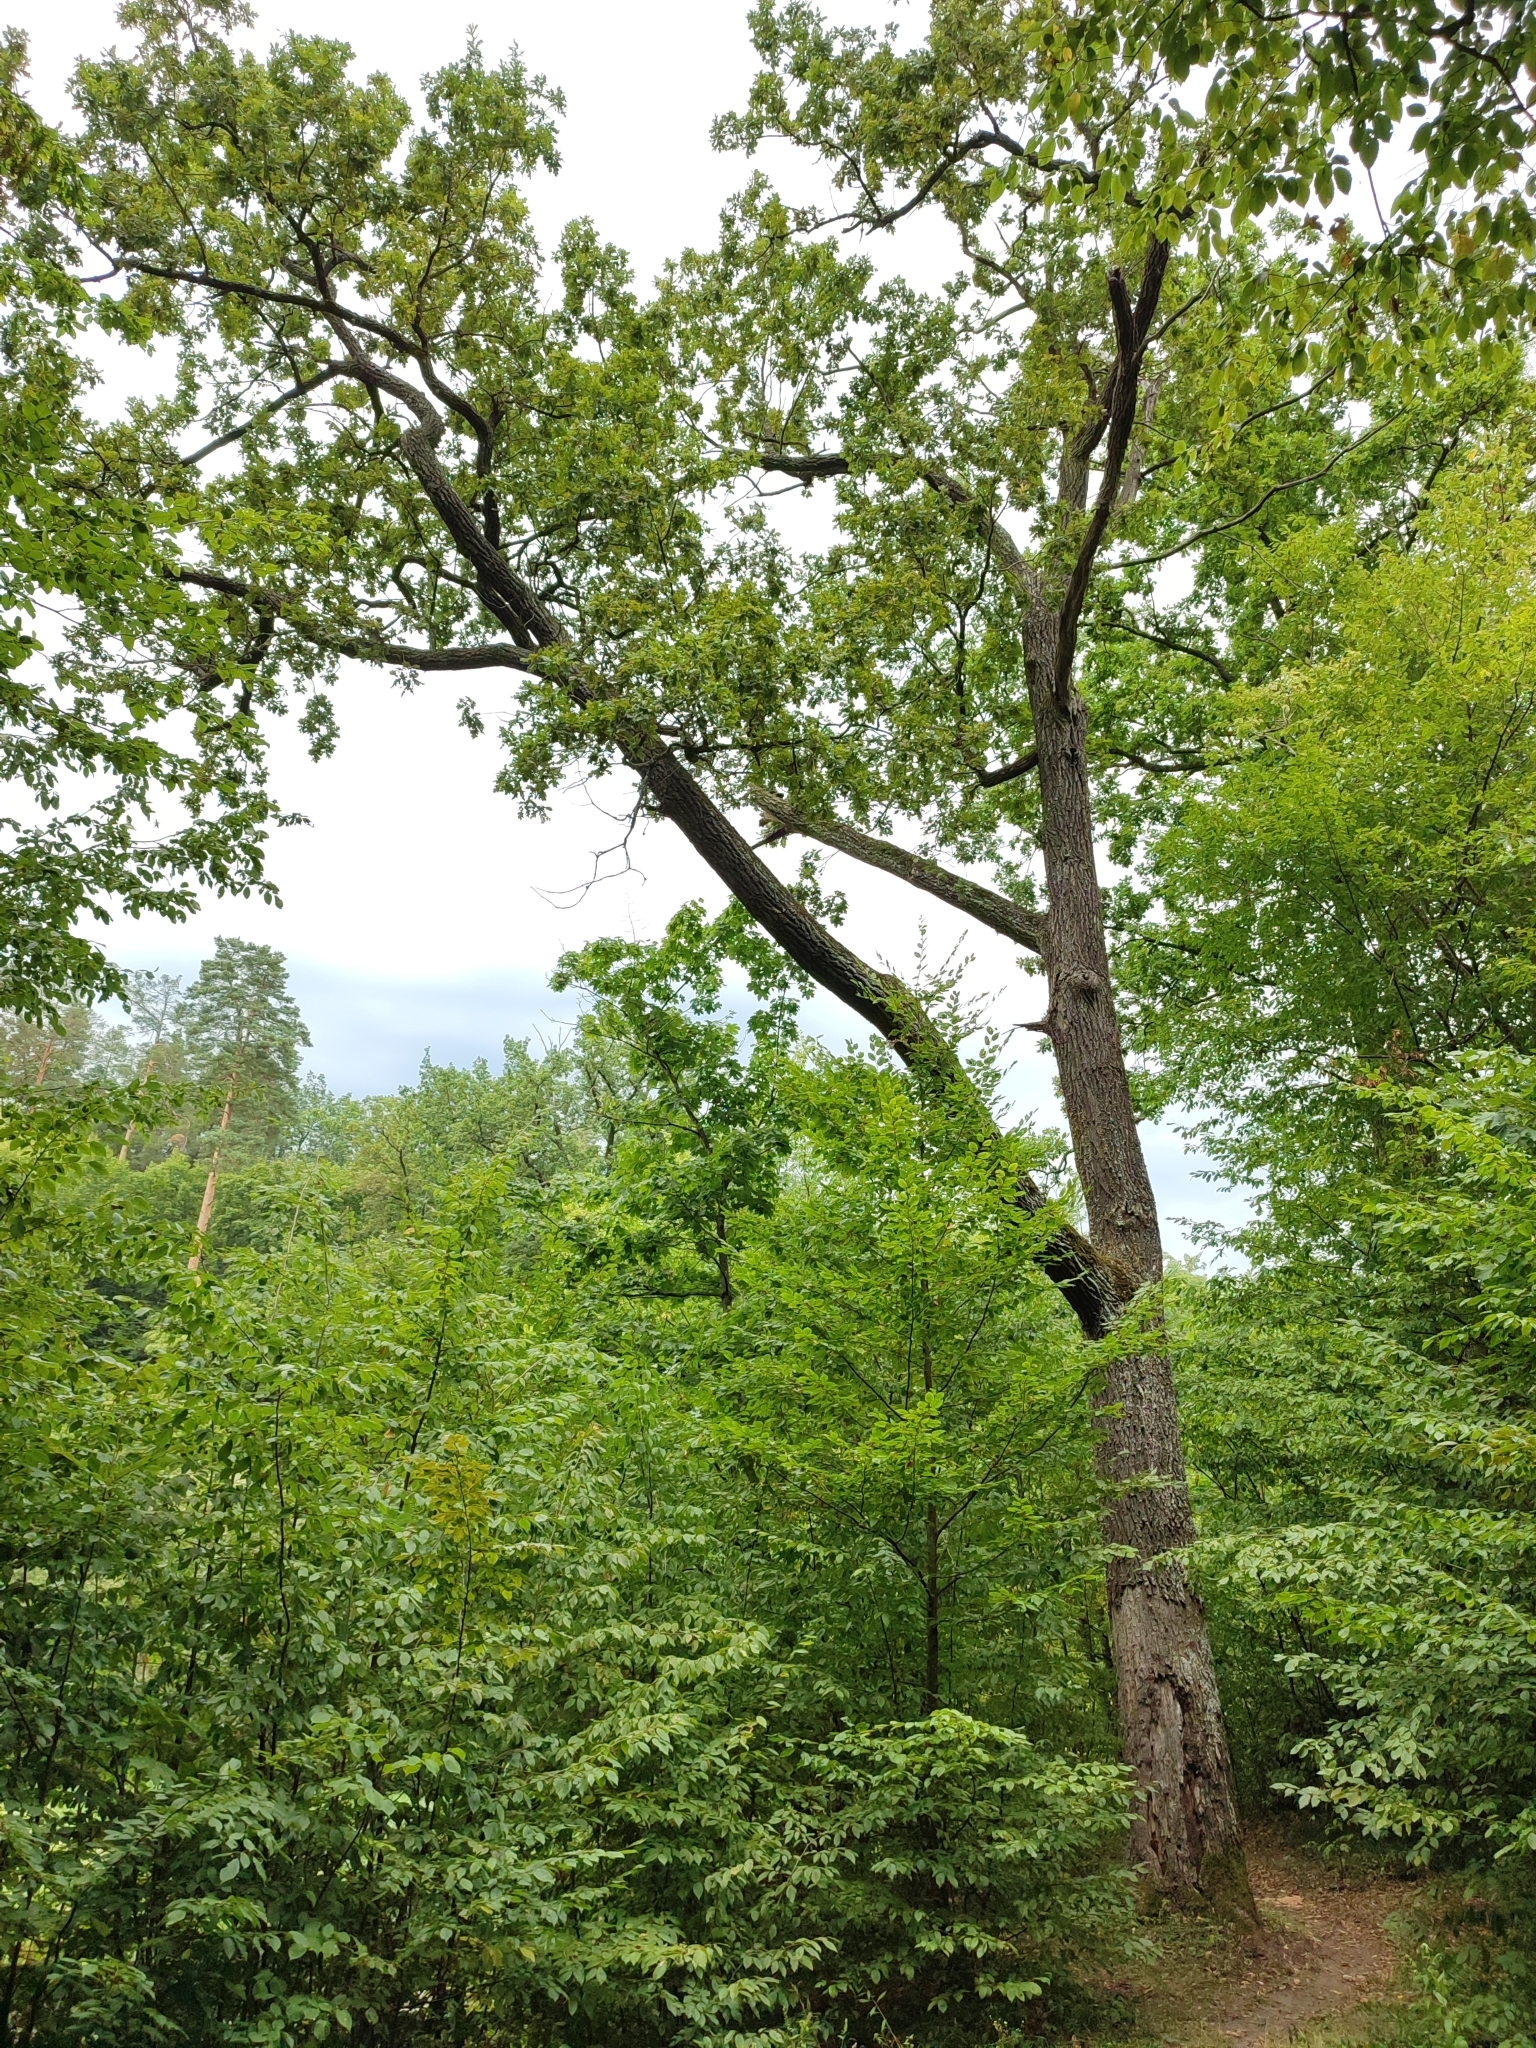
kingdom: Plantae
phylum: Tracheophyta
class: Magnoliopsida
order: Fagales
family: Fagaceae
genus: Quercus
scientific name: Quercus robur
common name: Pedunculate oak
